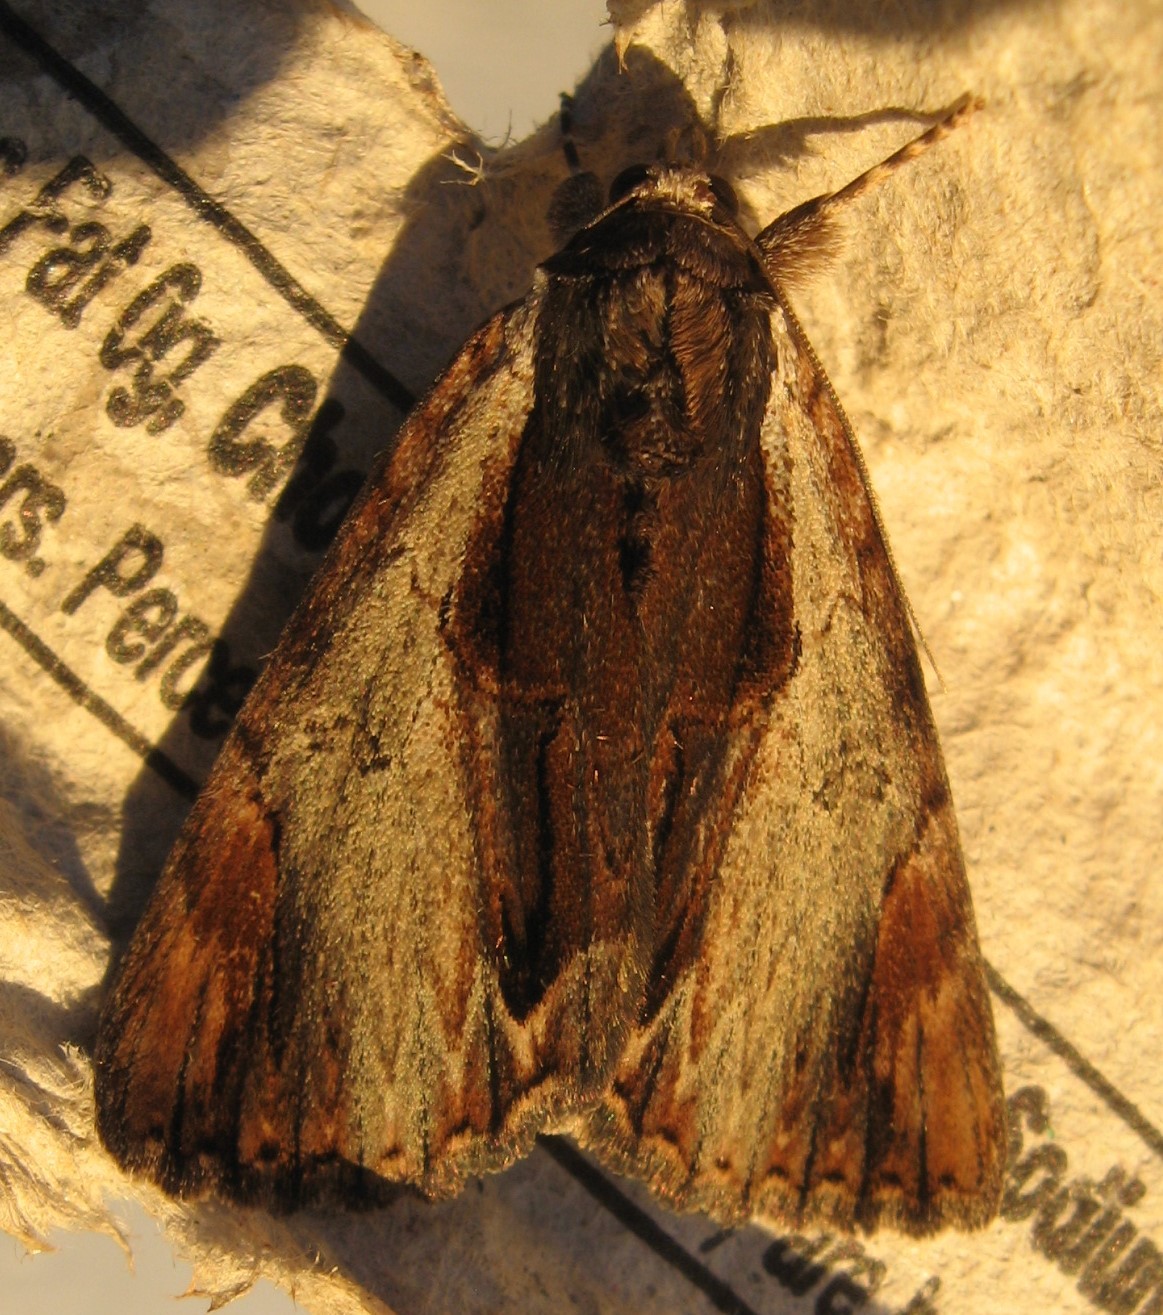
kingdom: Animalia
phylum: Arthropoda
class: Insecta
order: Lepidoptera
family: Erebidae
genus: Catocala
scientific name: Catocala ultronia
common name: Ultronia underwing
